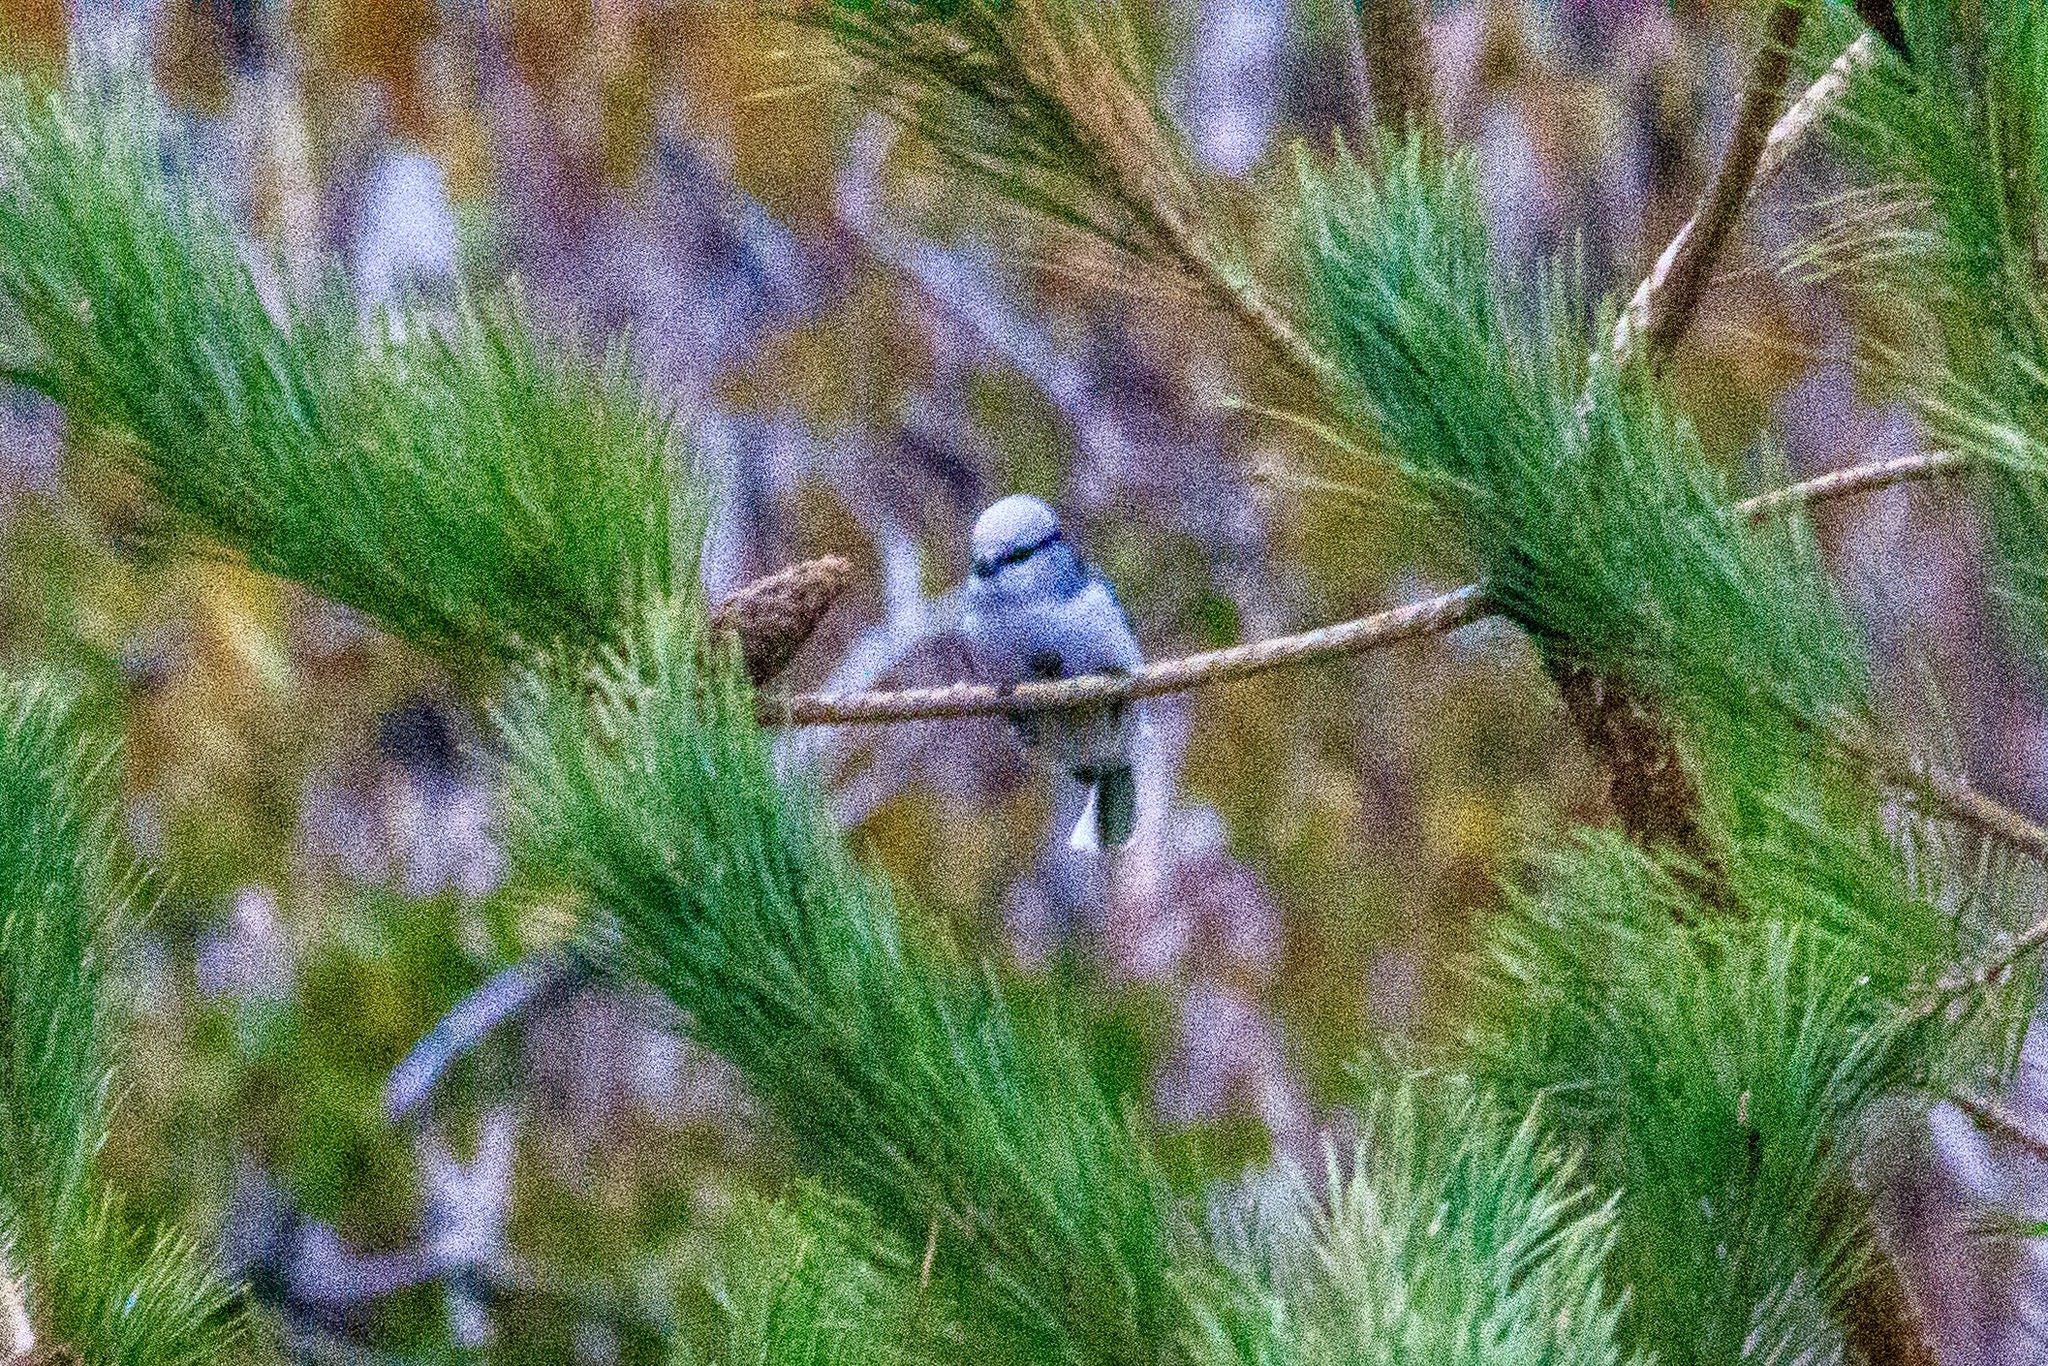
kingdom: Animalia
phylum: Chordata
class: Aves
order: Passeriformes
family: Paridae
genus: Cyanistes
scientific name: Cyanistes cyanus
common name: Azure tit
